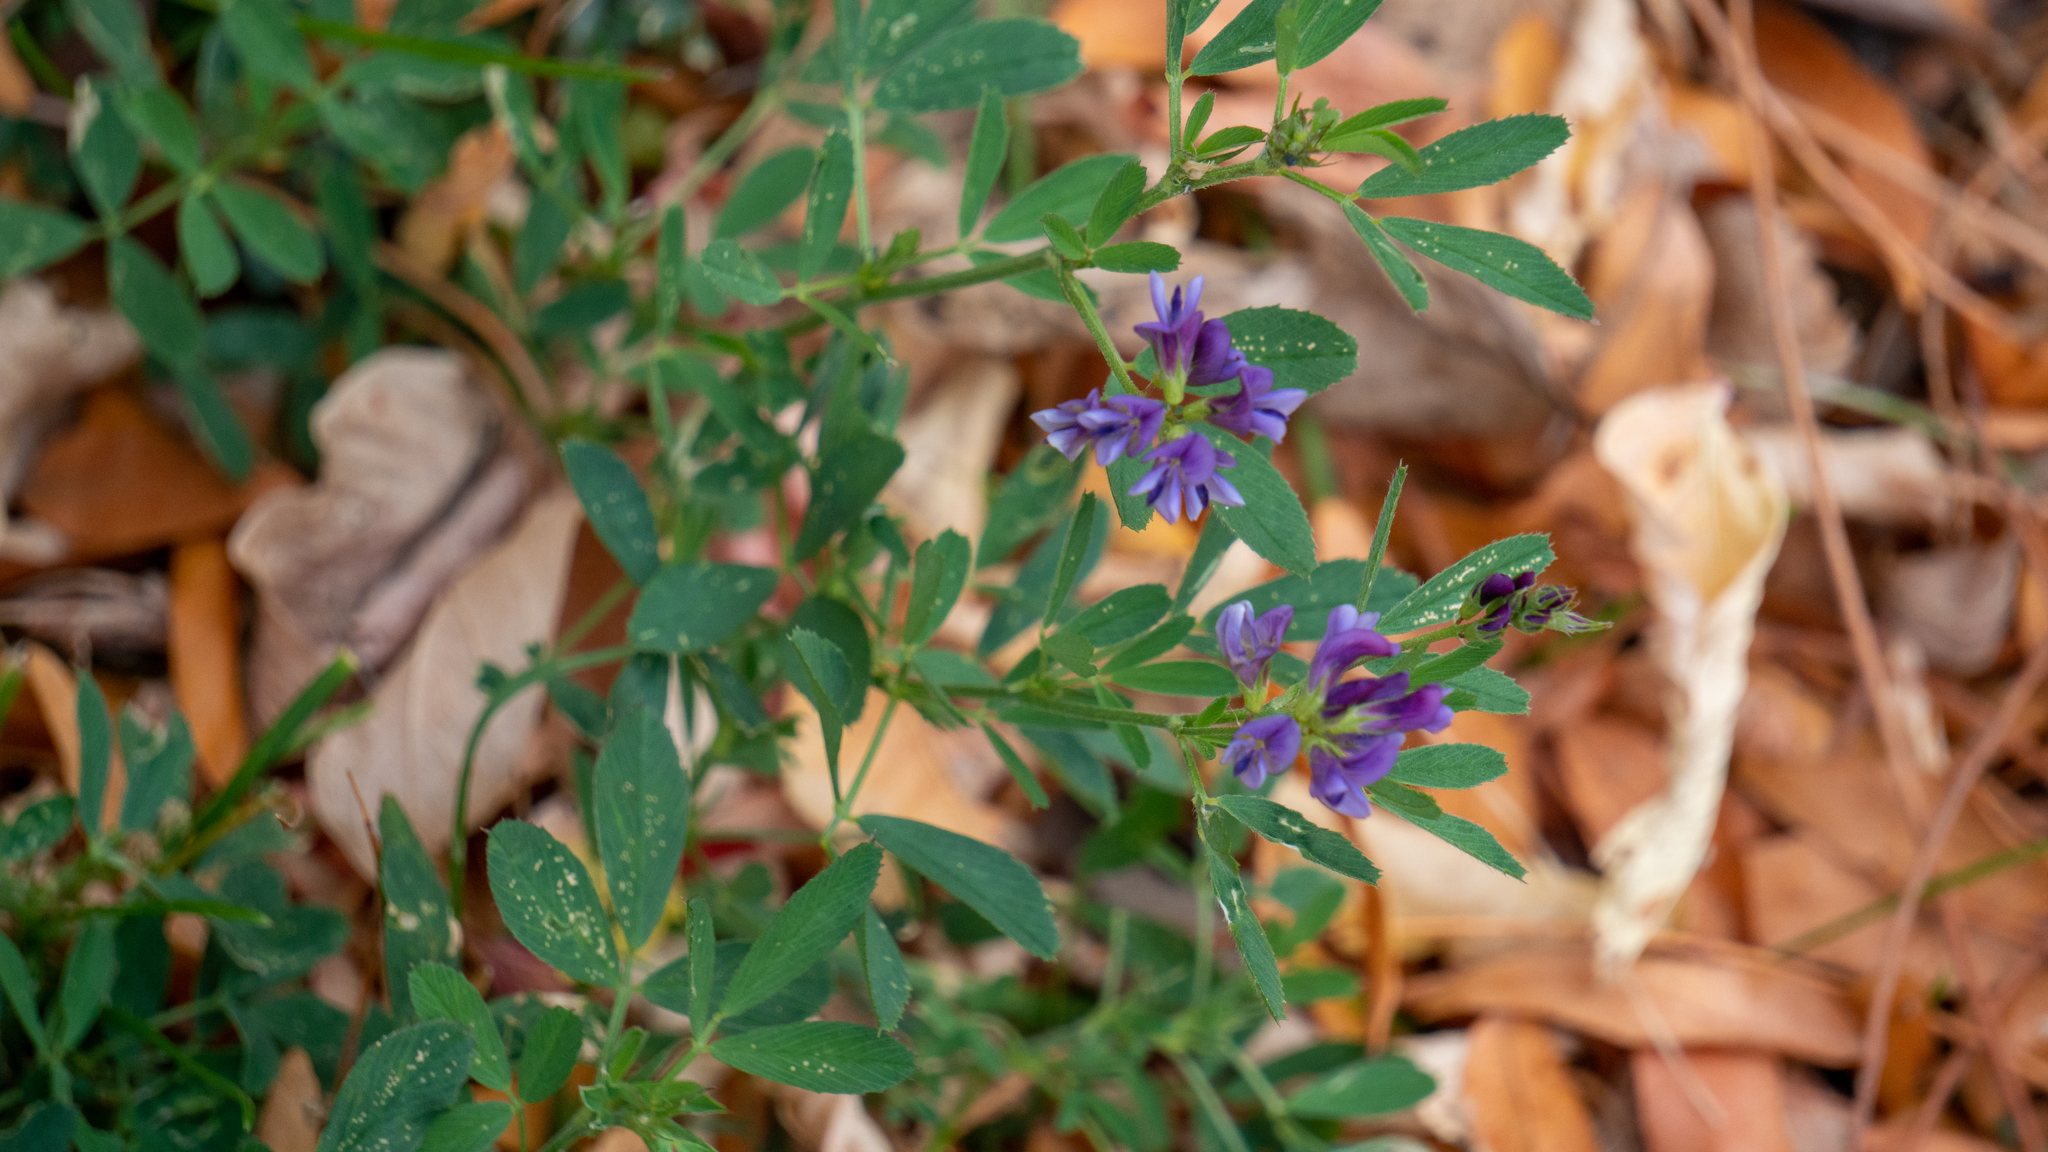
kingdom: Plantae
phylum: Tracheophyta
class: Magnoliopsida
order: Fabales
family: Fabaceae
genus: Medicago
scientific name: Medicago sativa
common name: Alfalfa
